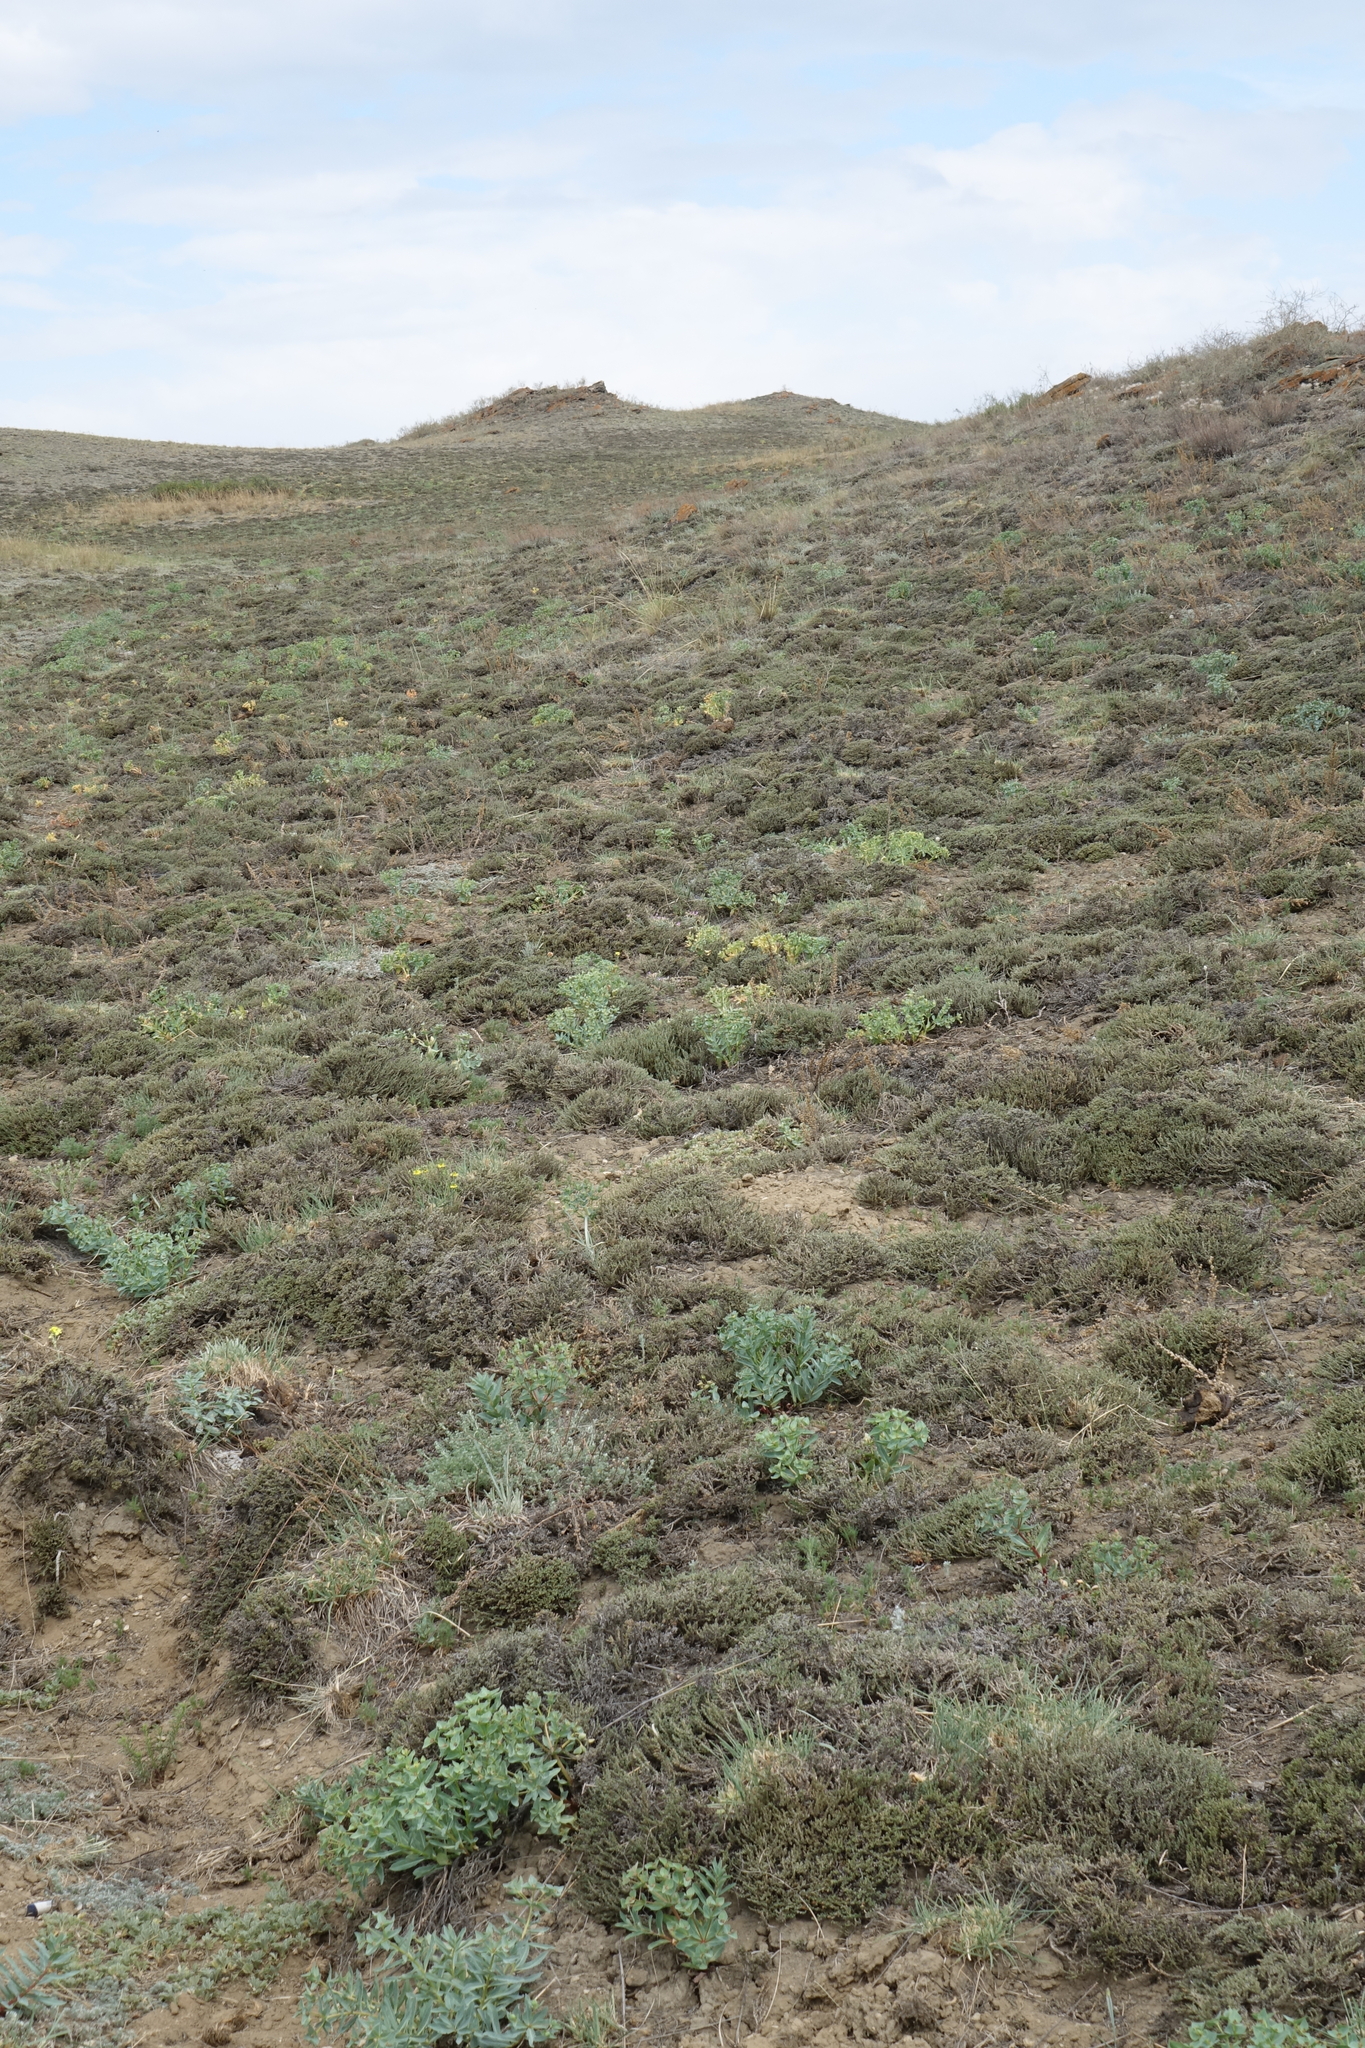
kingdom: Plantae
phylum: Tracheophyta
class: Magnoliopsida
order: Caryophyllales
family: Amaranthaceae
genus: Nanophyton
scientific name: Nanophyton grubovii
